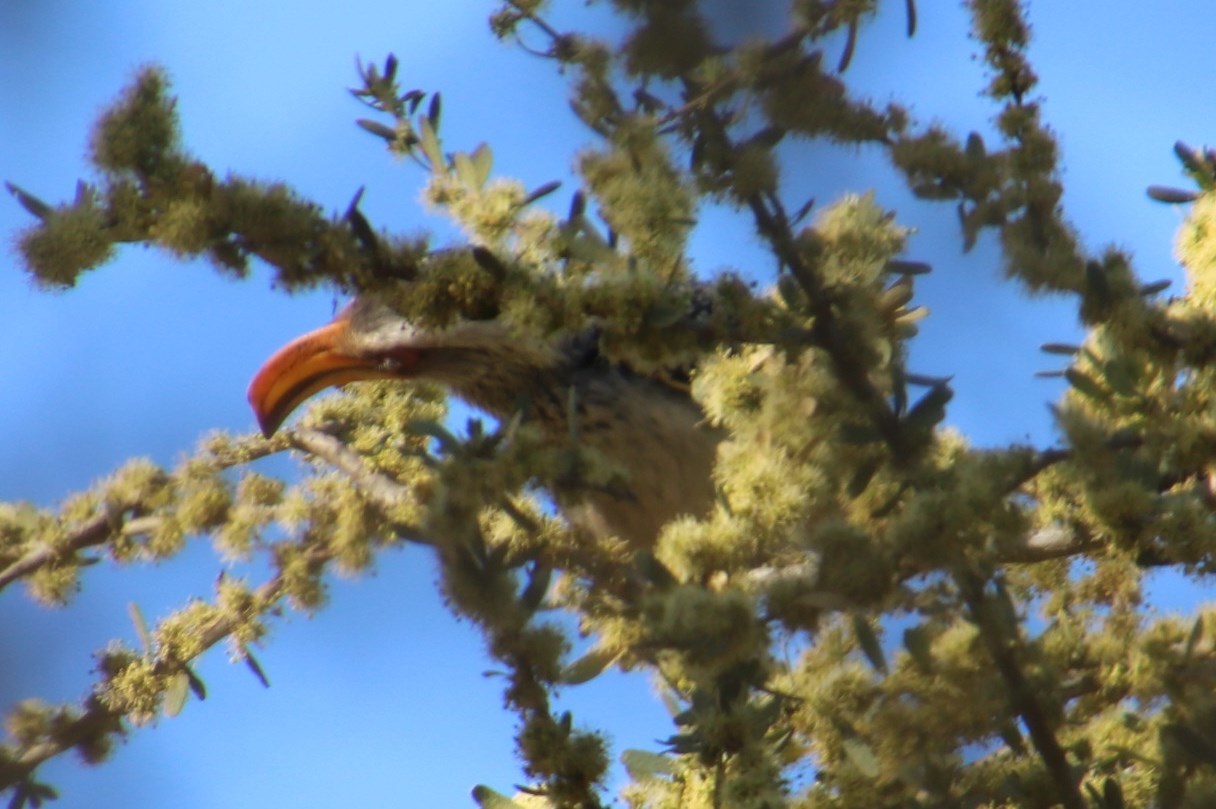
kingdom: Animalia
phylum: Chordata
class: Aves
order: Bucerotiformes
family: Bucerotidae
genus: Tockus
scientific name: Tockus leucomelas
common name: Southern yellow-billed hornbill
